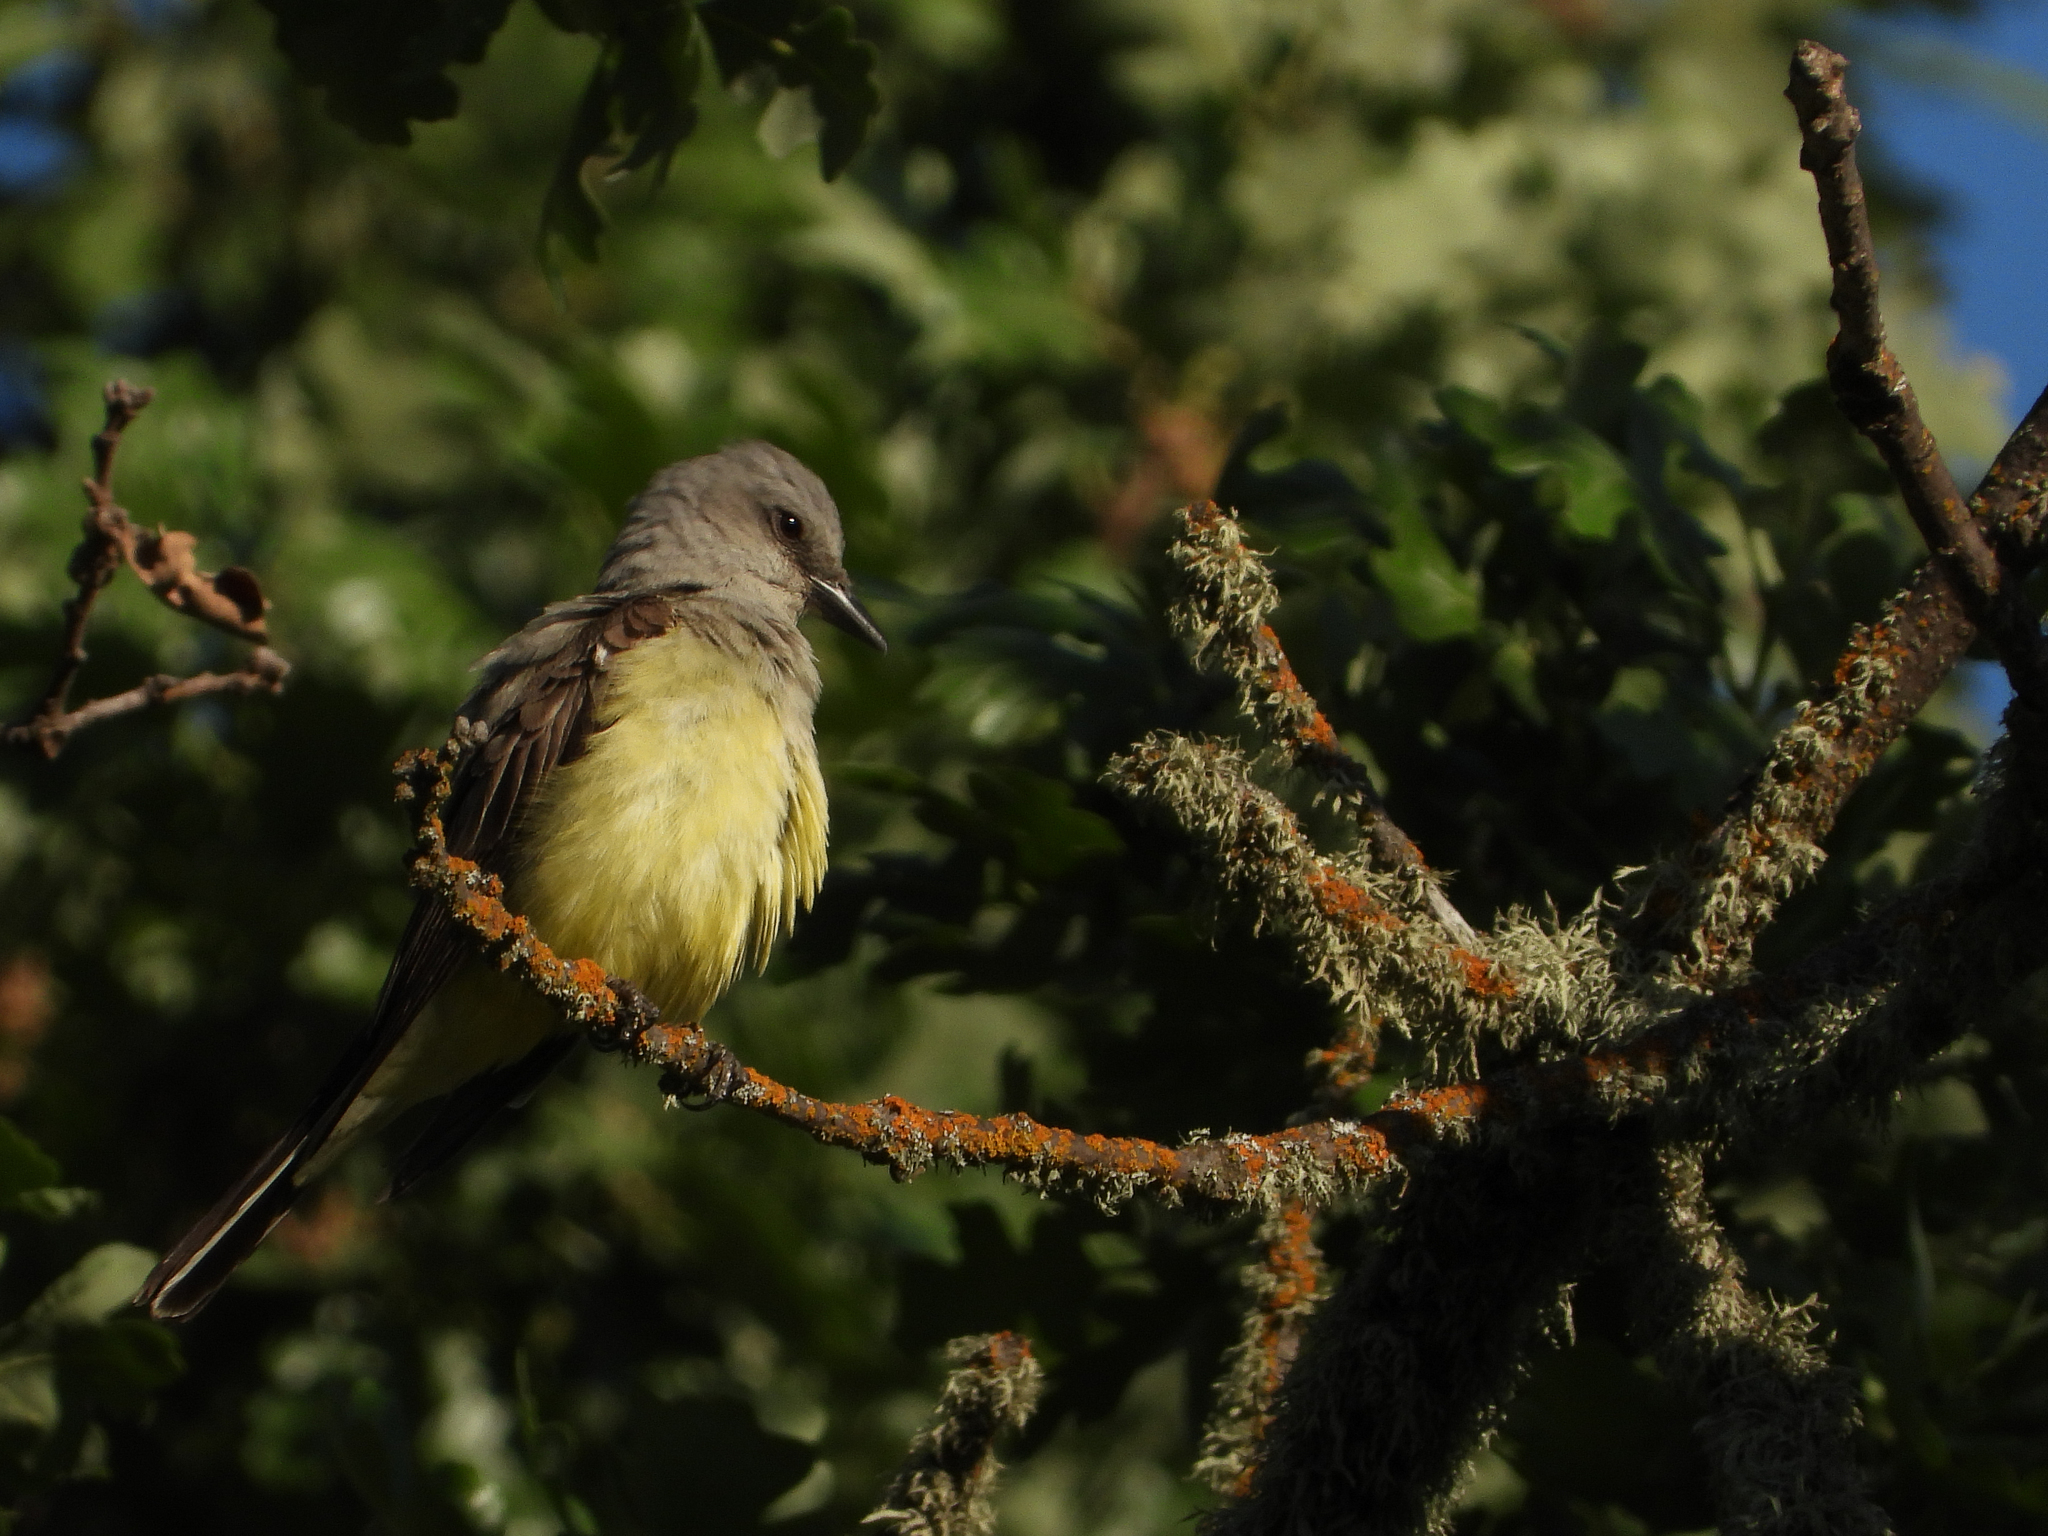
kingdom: Animalia
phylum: Chordata
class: Aves
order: Passeriformes
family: Tyrannidae
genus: Tyrannus
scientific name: Tyrannus verticalis
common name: Western kingbird
